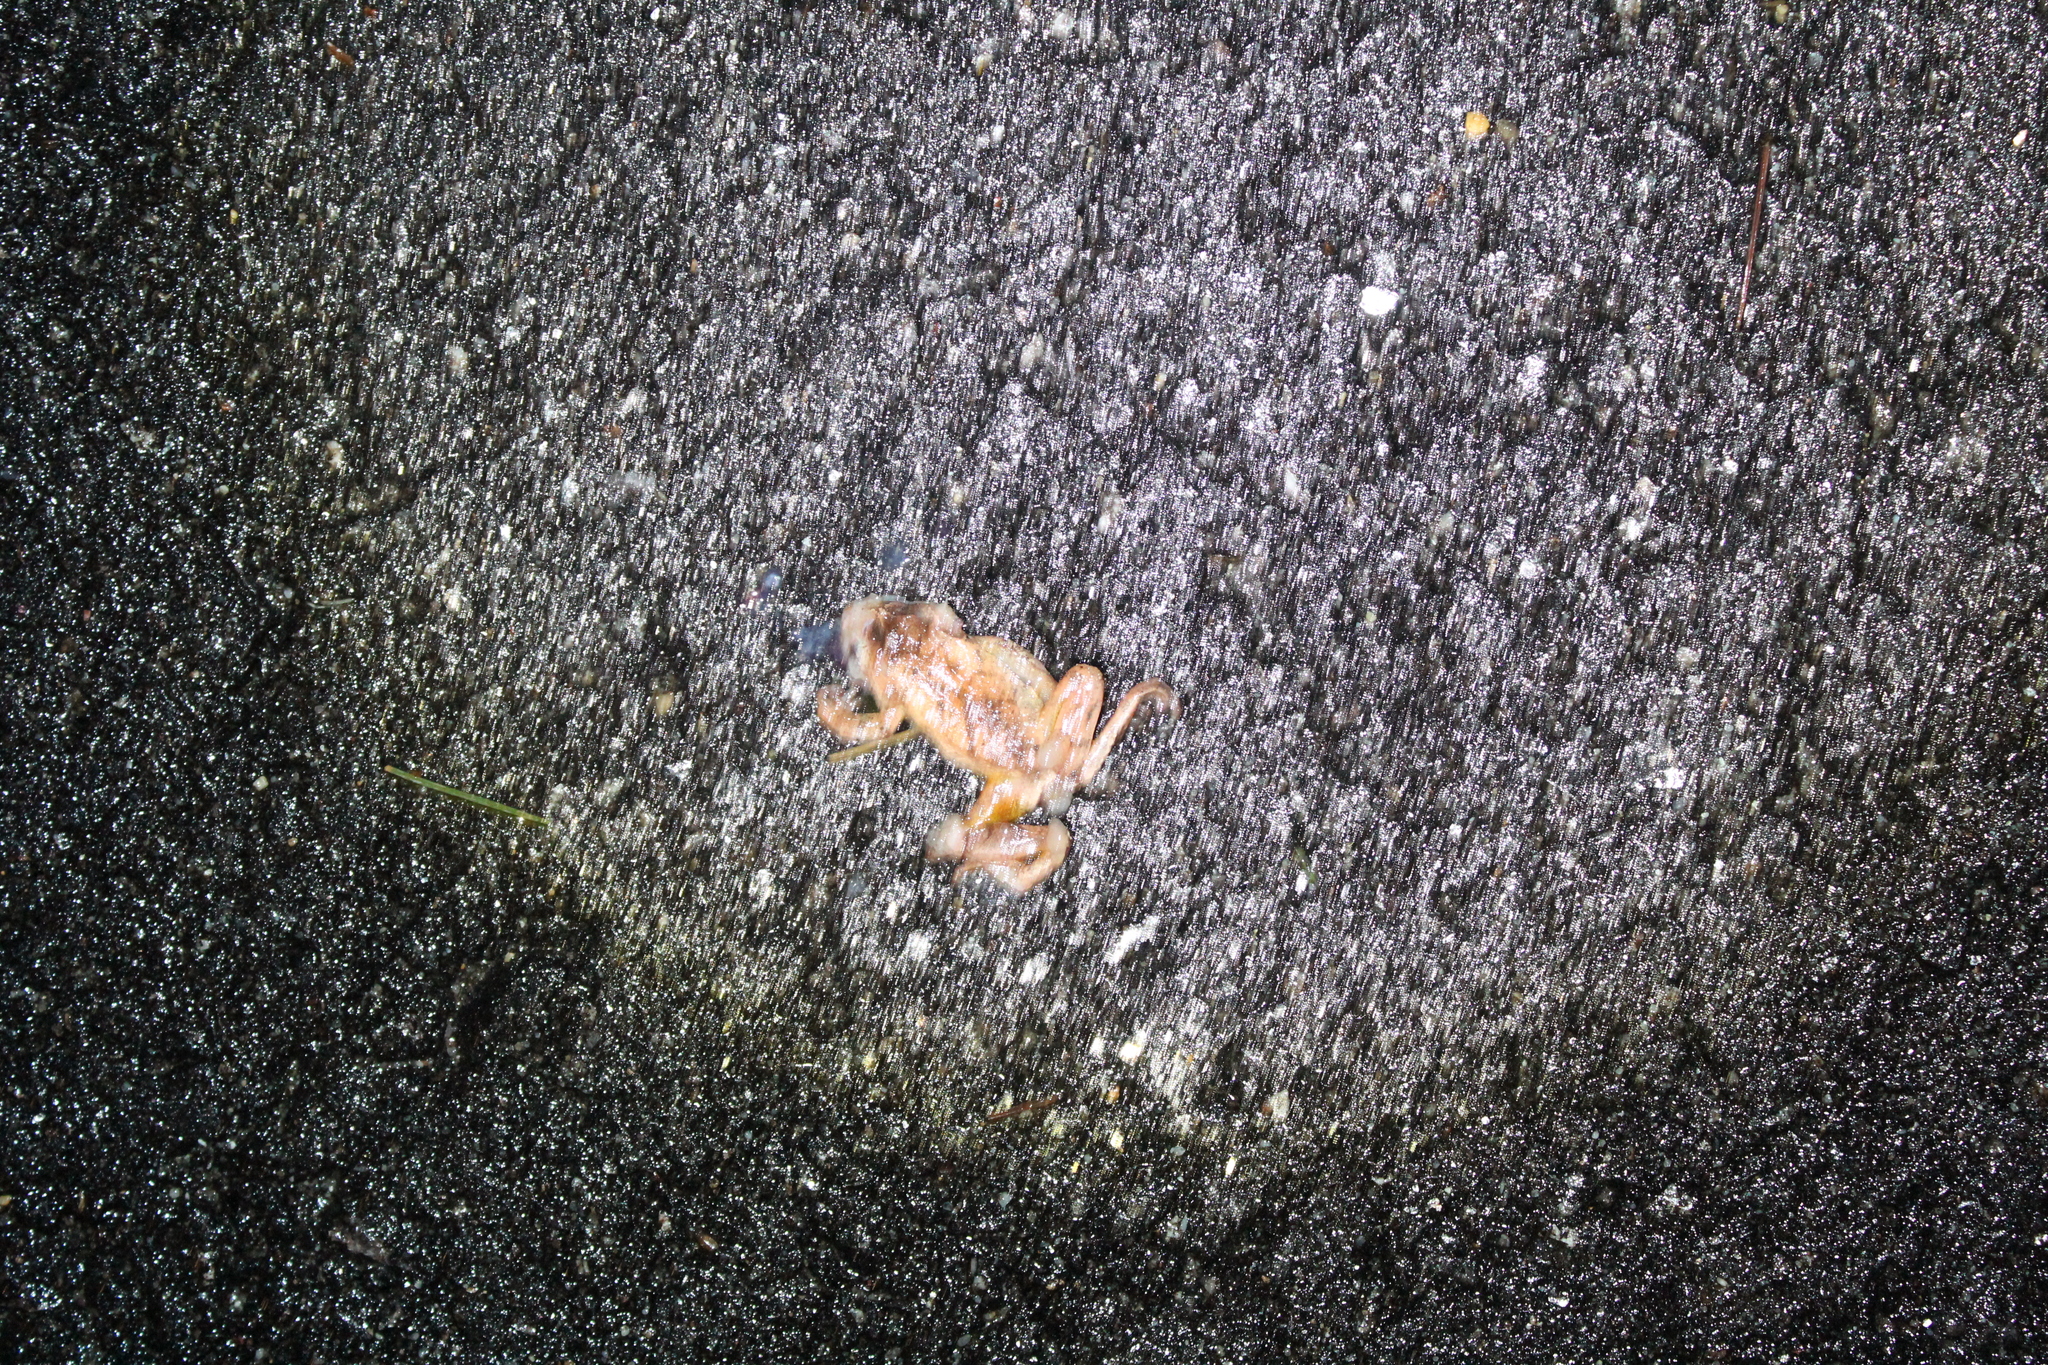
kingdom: Animalia
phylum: Chordata
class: Amphibia
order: Anura
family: Hylidae
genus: Pseudacris
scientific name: Pseudacris crucifer
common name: Spring peeper
